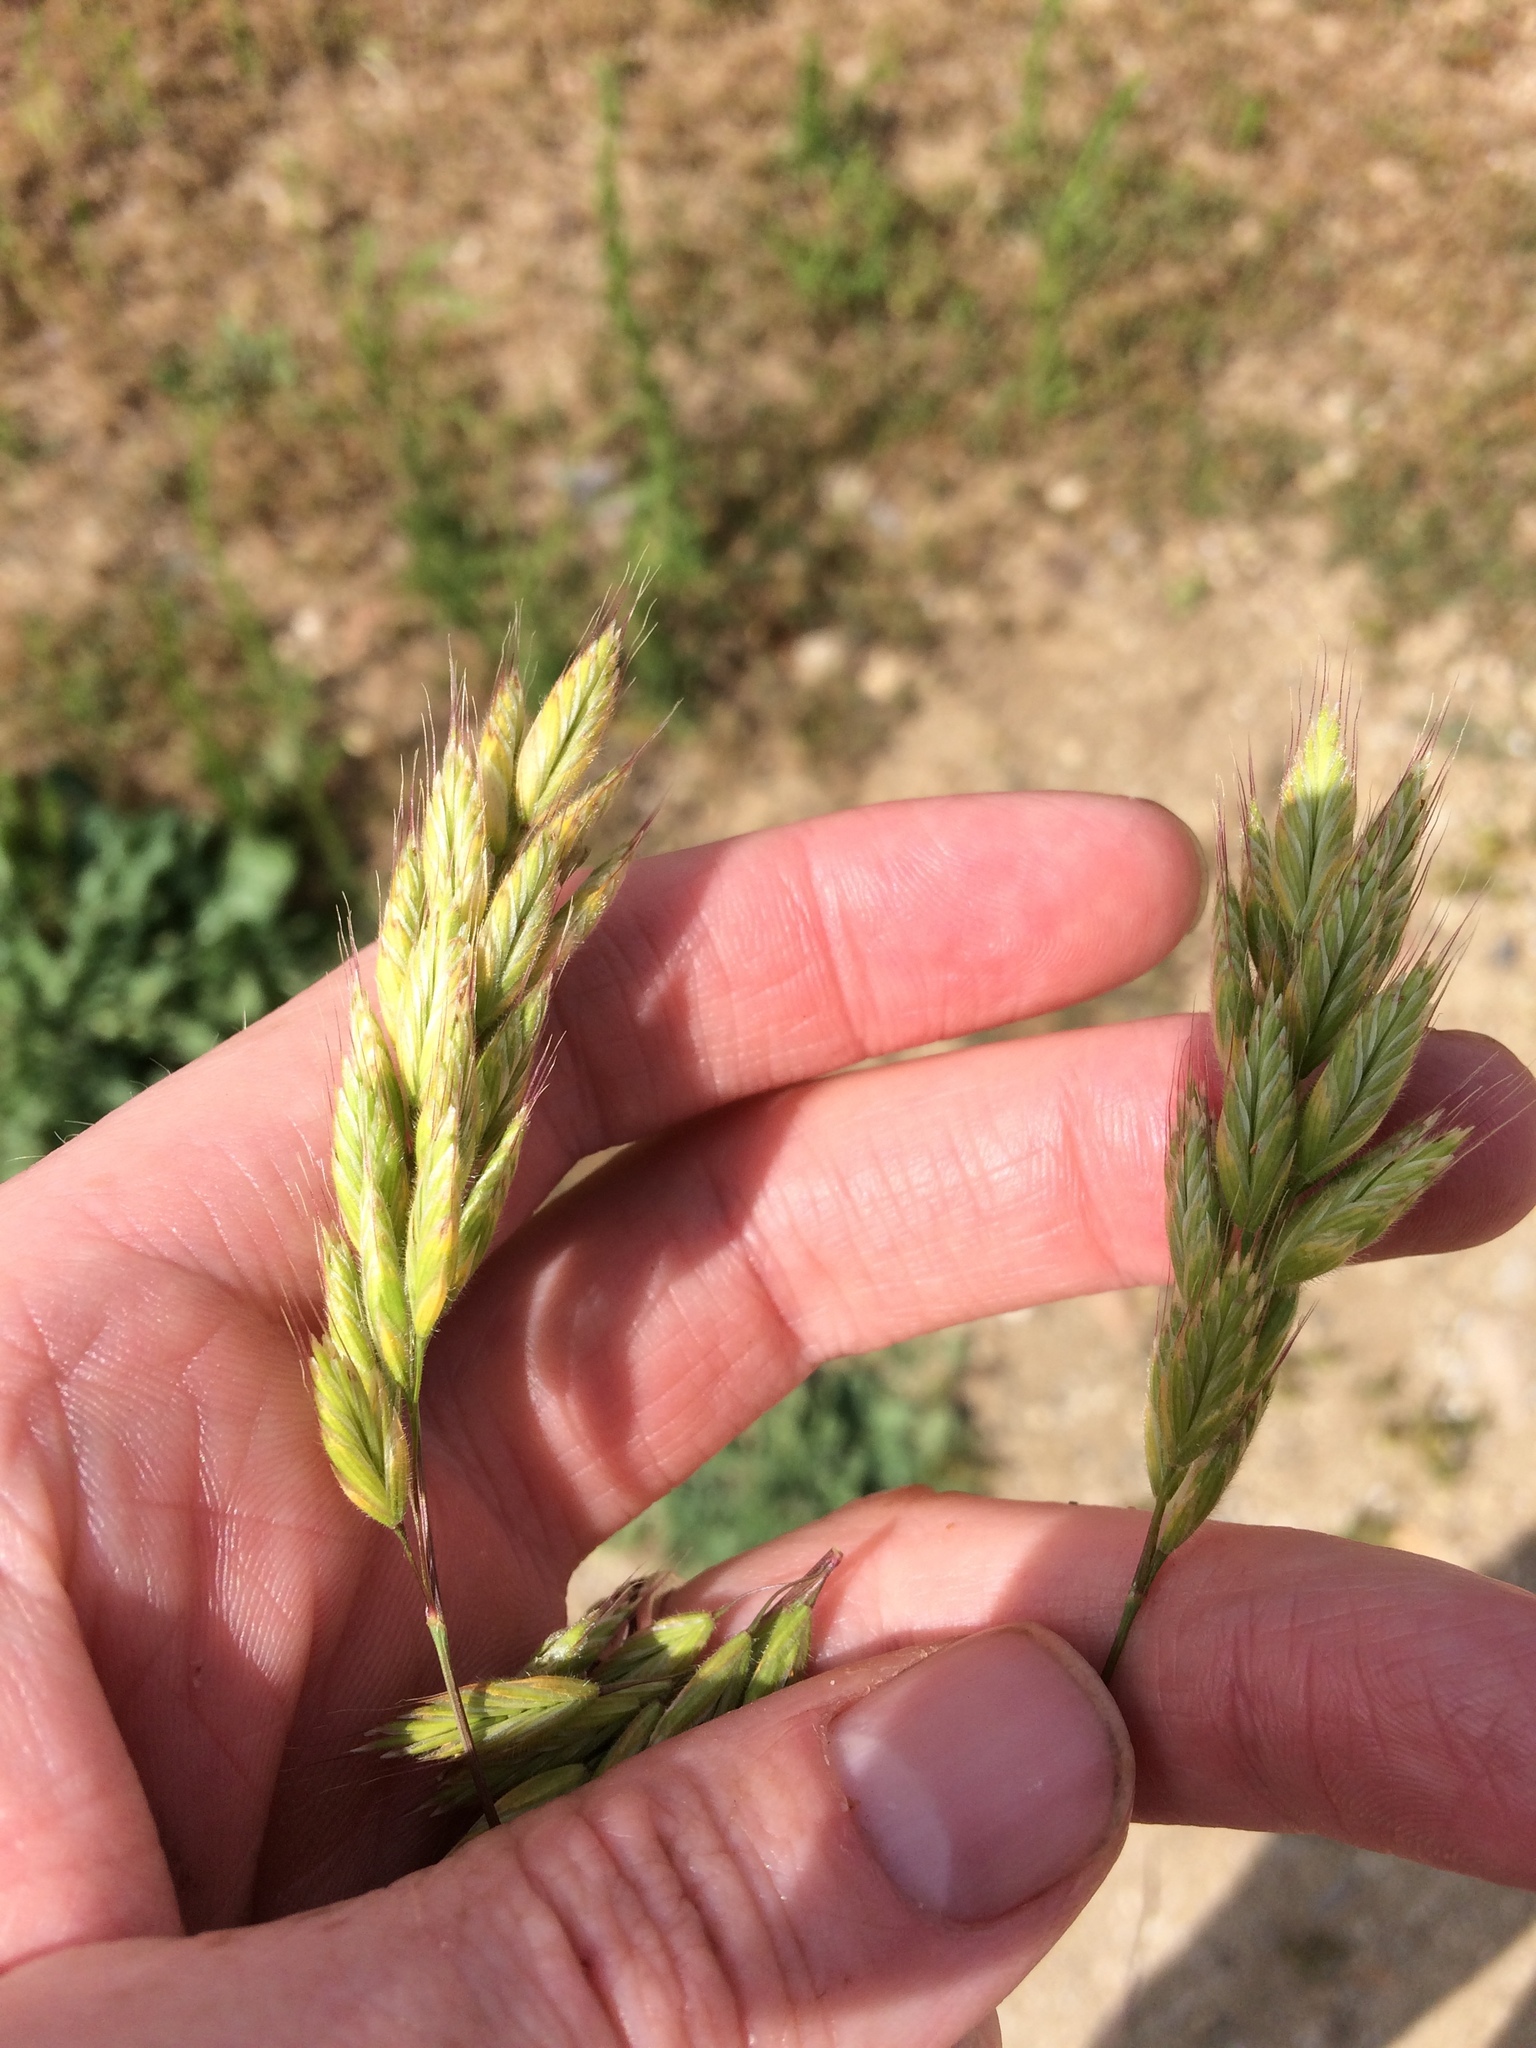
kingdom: Plantae
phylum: Tracheophyta
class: Liliopsida
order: Poales
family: Poaceae
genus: Bromus
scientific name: Bromus hordeaceus
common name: Soft brome
